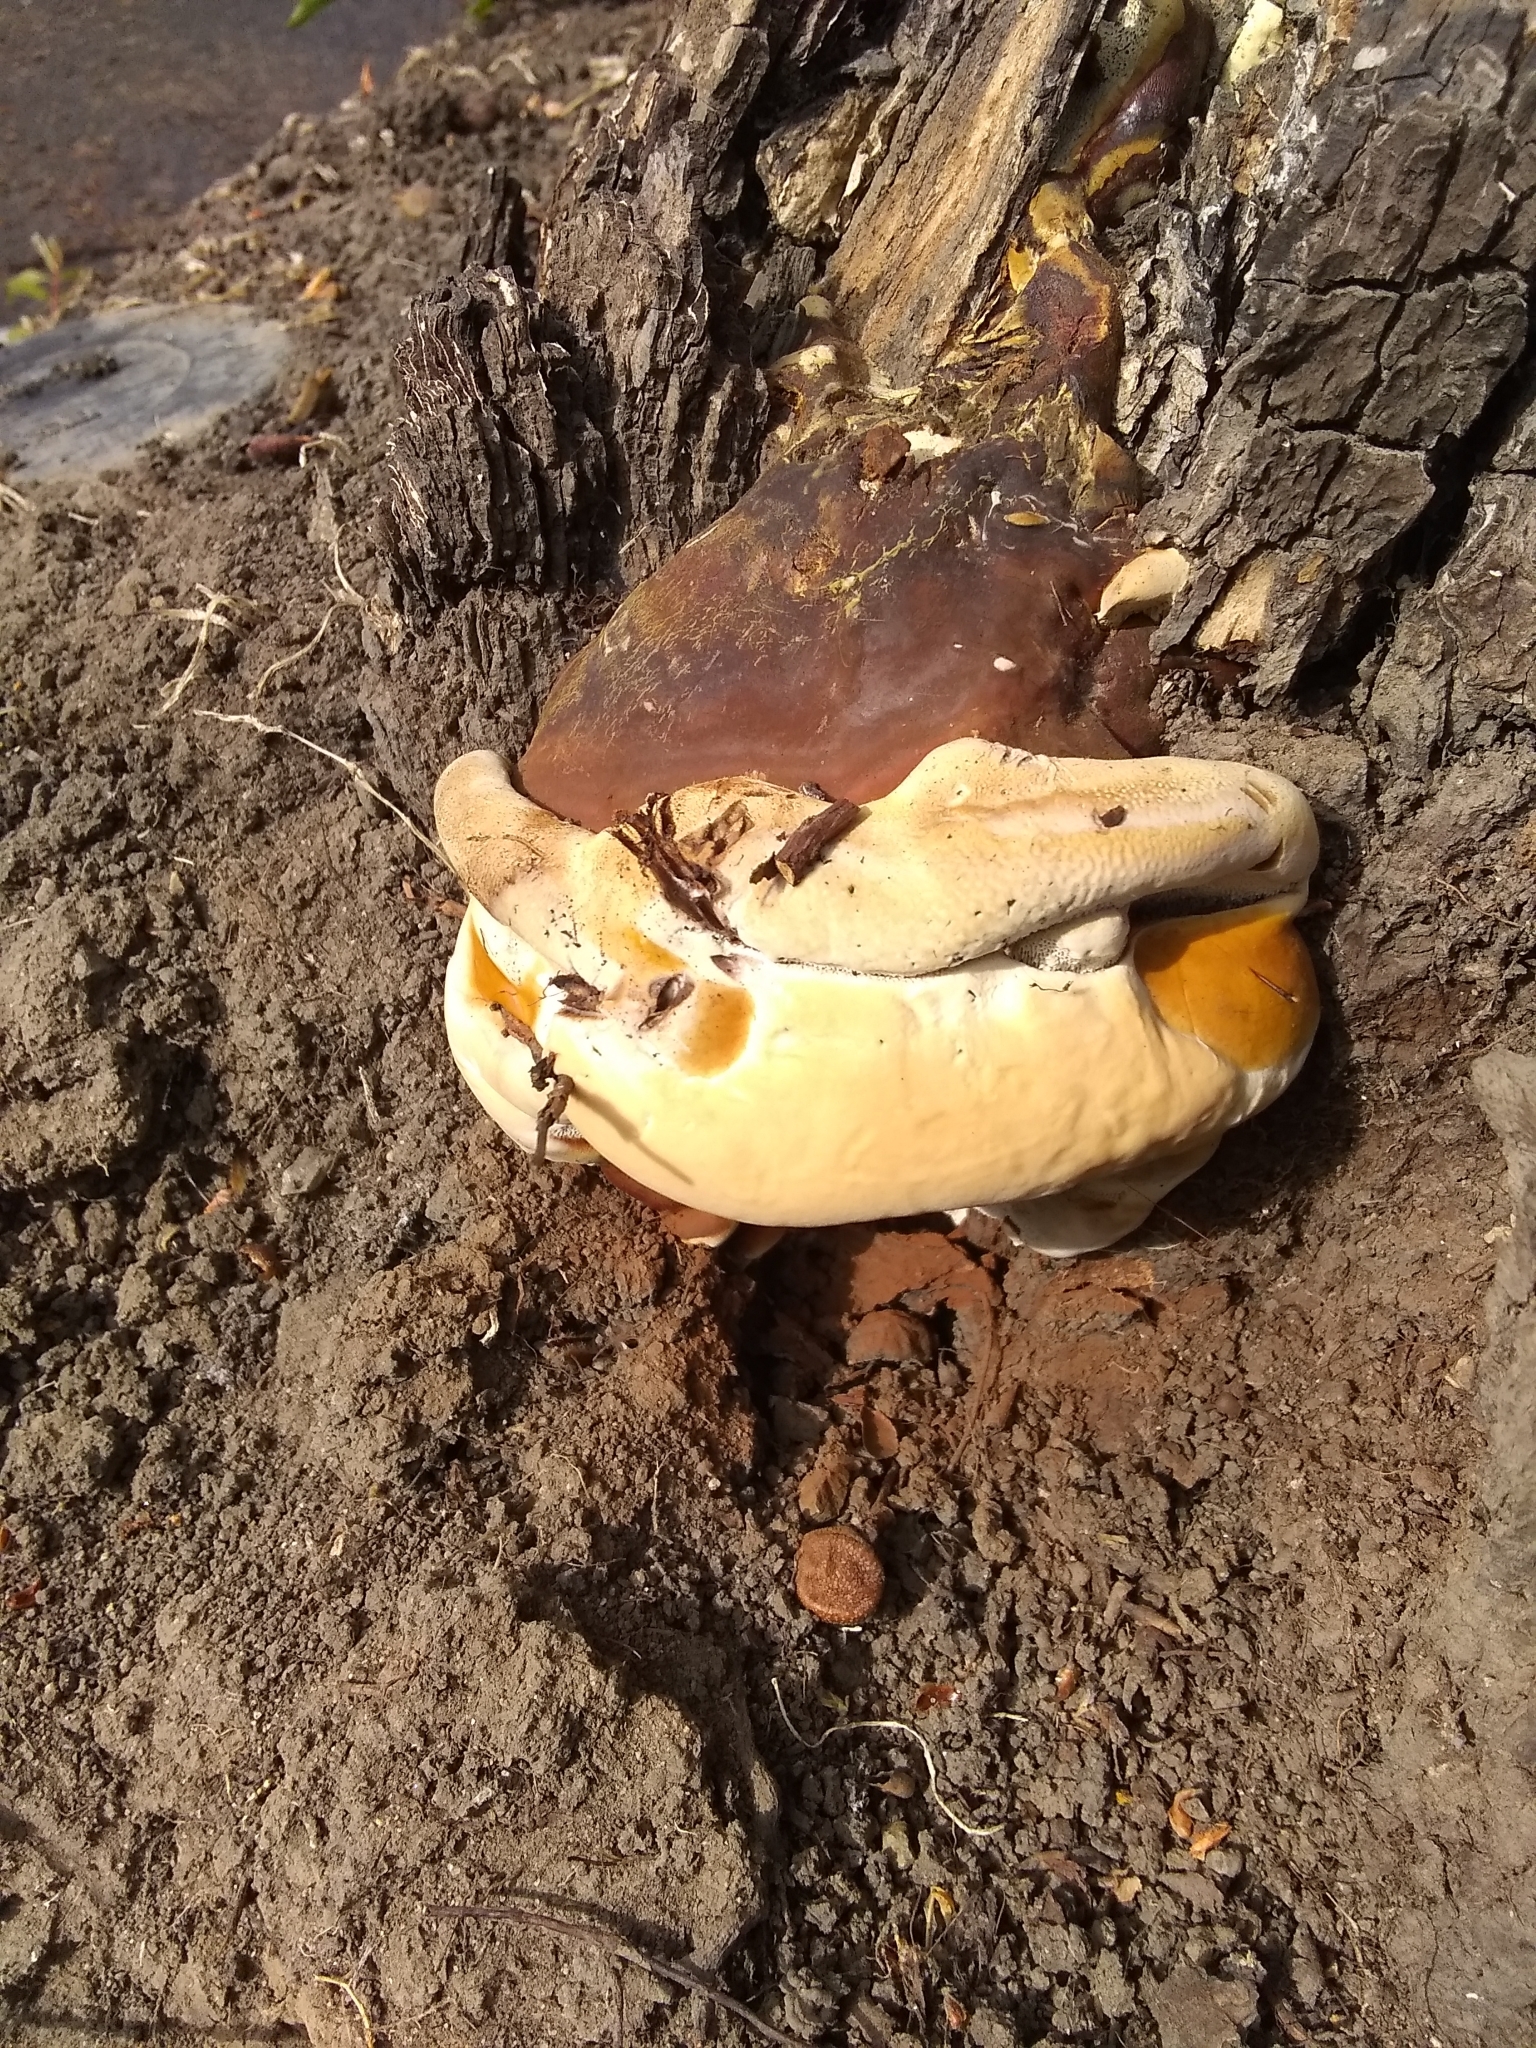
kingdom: Fungi
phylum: Basidiomycota
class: Agaricomycetes
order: Polyporales
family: Polyporaceae
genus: Ganoderma
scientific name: Ganoderma polychromum
